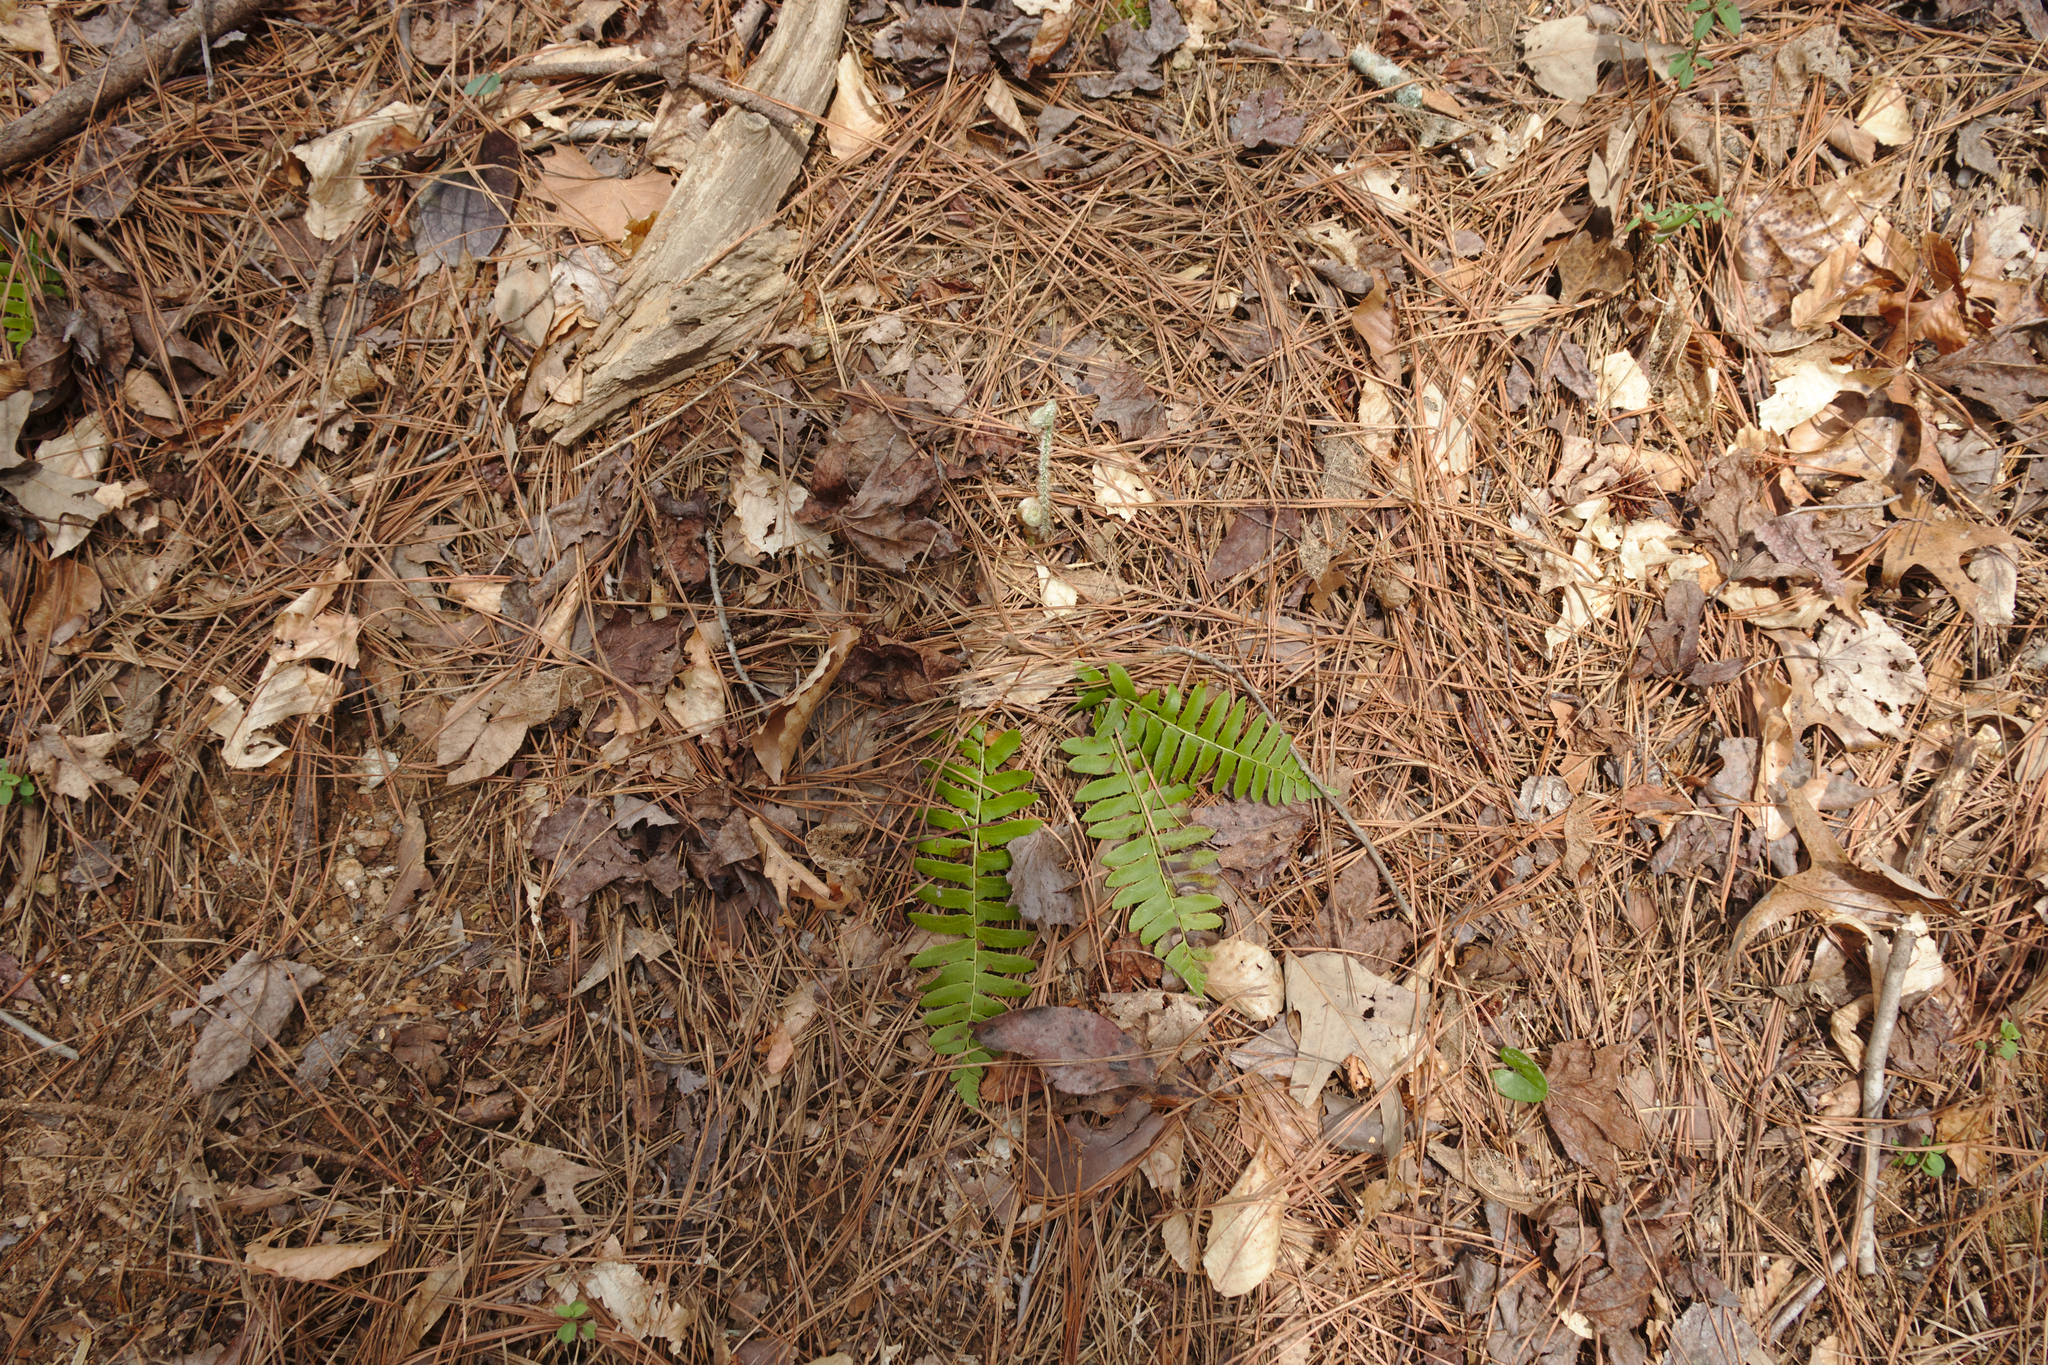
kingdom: Plantae
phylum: Tracheophyta
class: Polypodiopsida
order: Polypodiales
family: Dryopteridaceae
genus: Polystichum
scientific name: Polystichum acrostichoides
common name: Christmas fern
